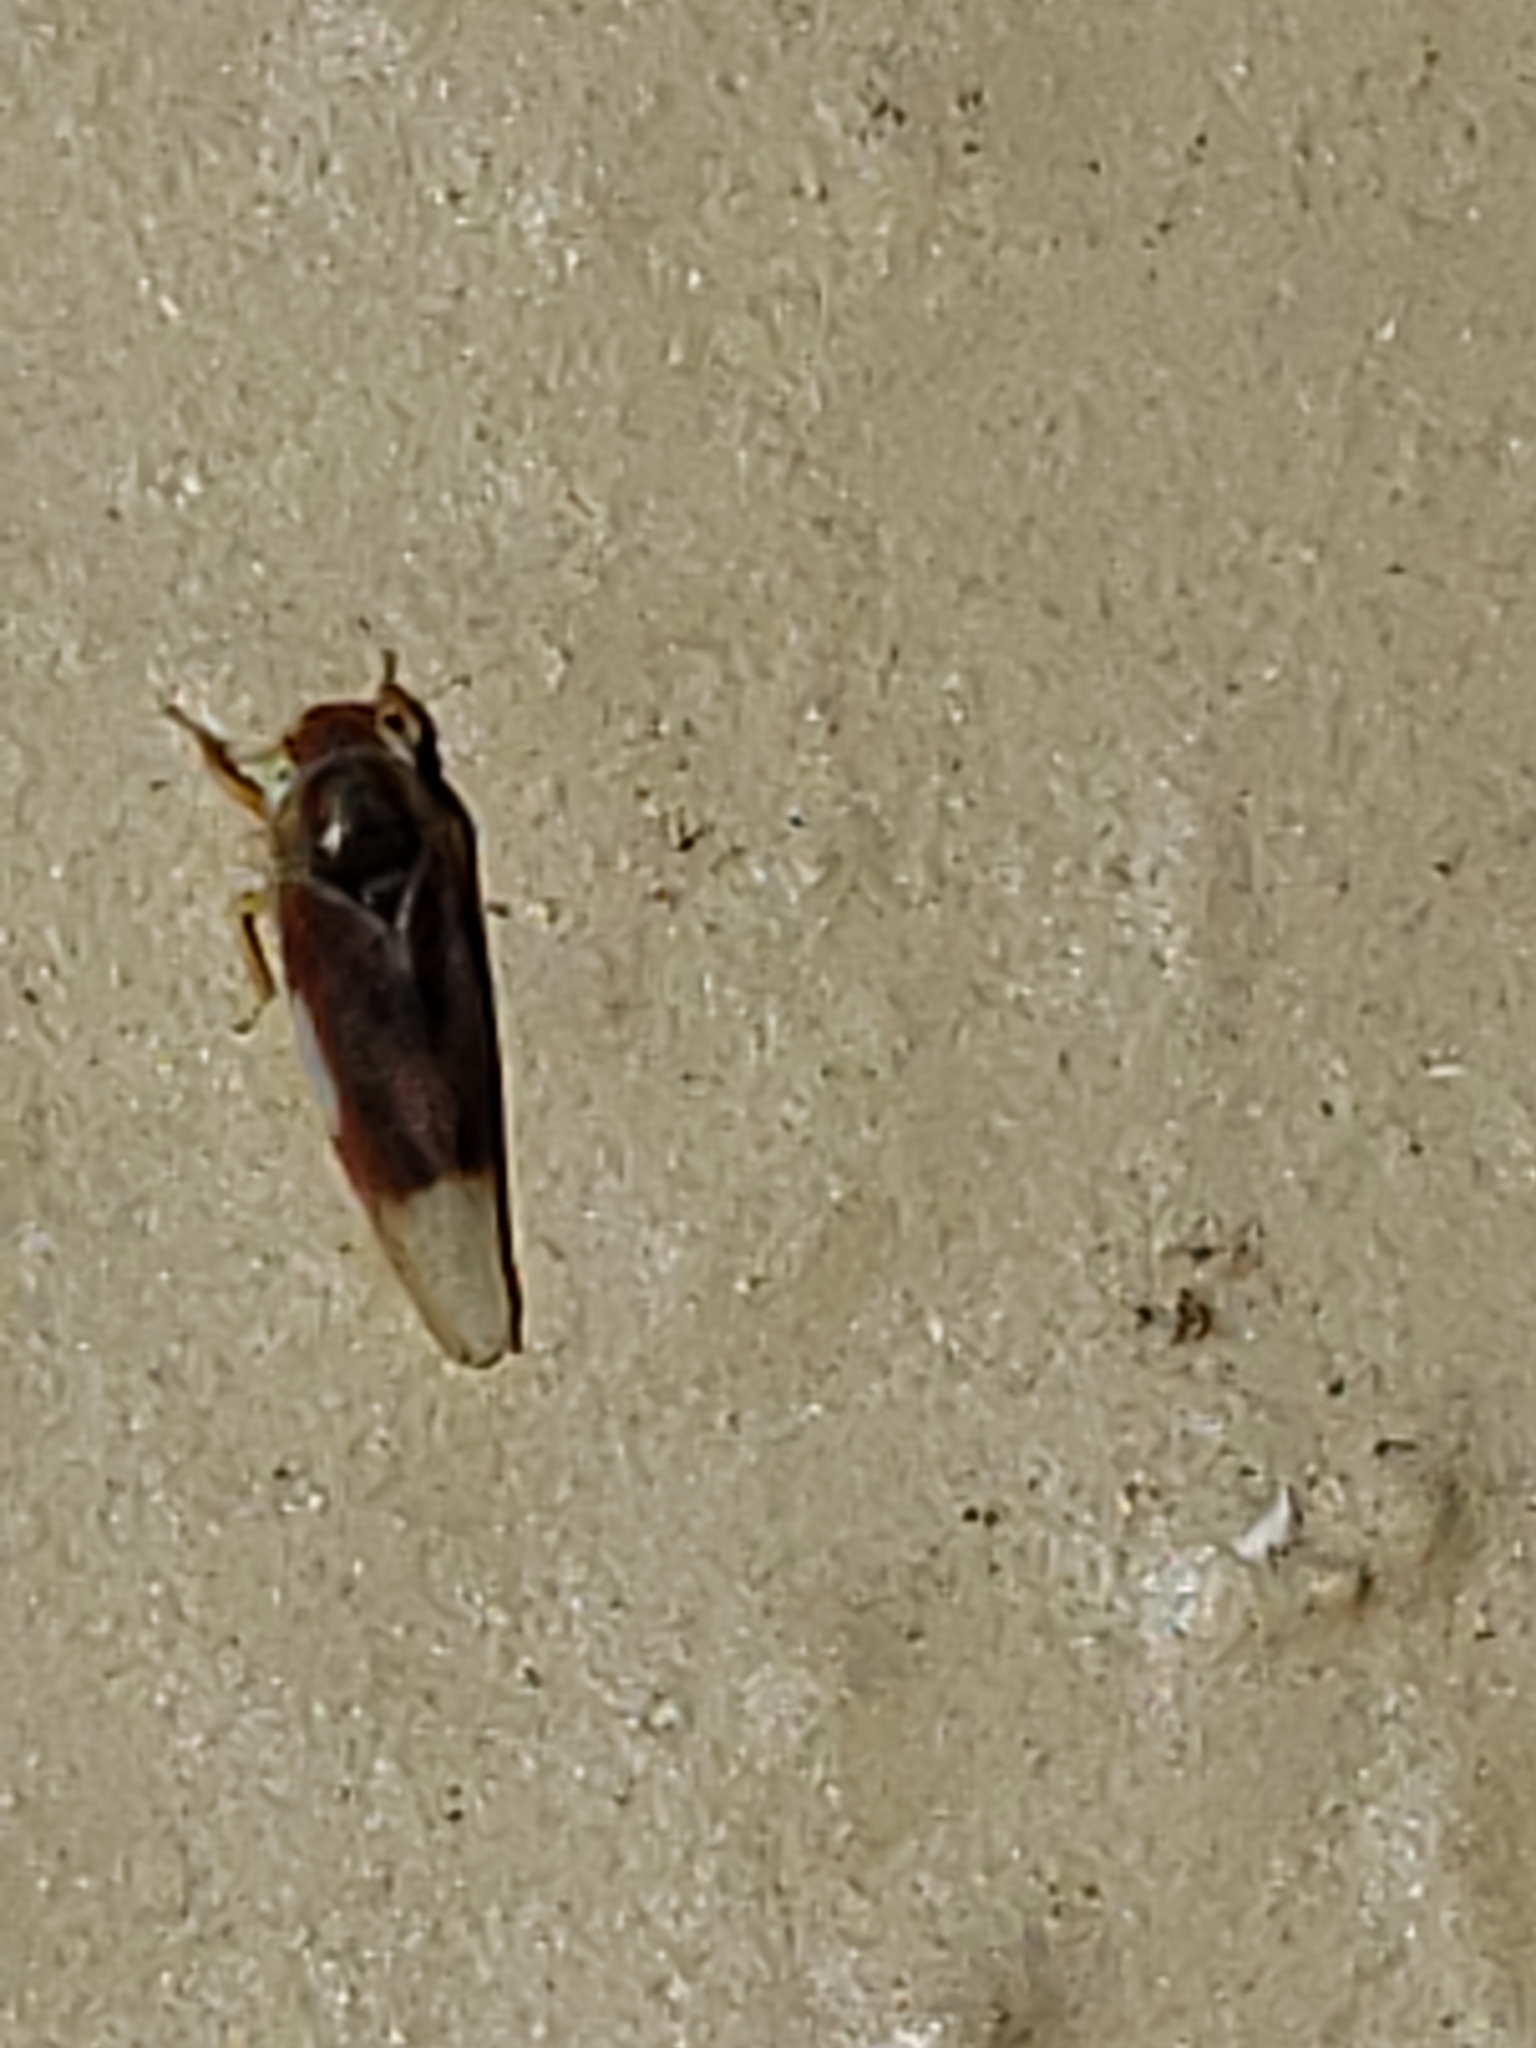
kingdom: Animalia
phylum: Arthropoda
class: Insecta
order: Hemiptera
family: Cicadellidae
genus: Erythridula
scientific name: Erythridula abolla
